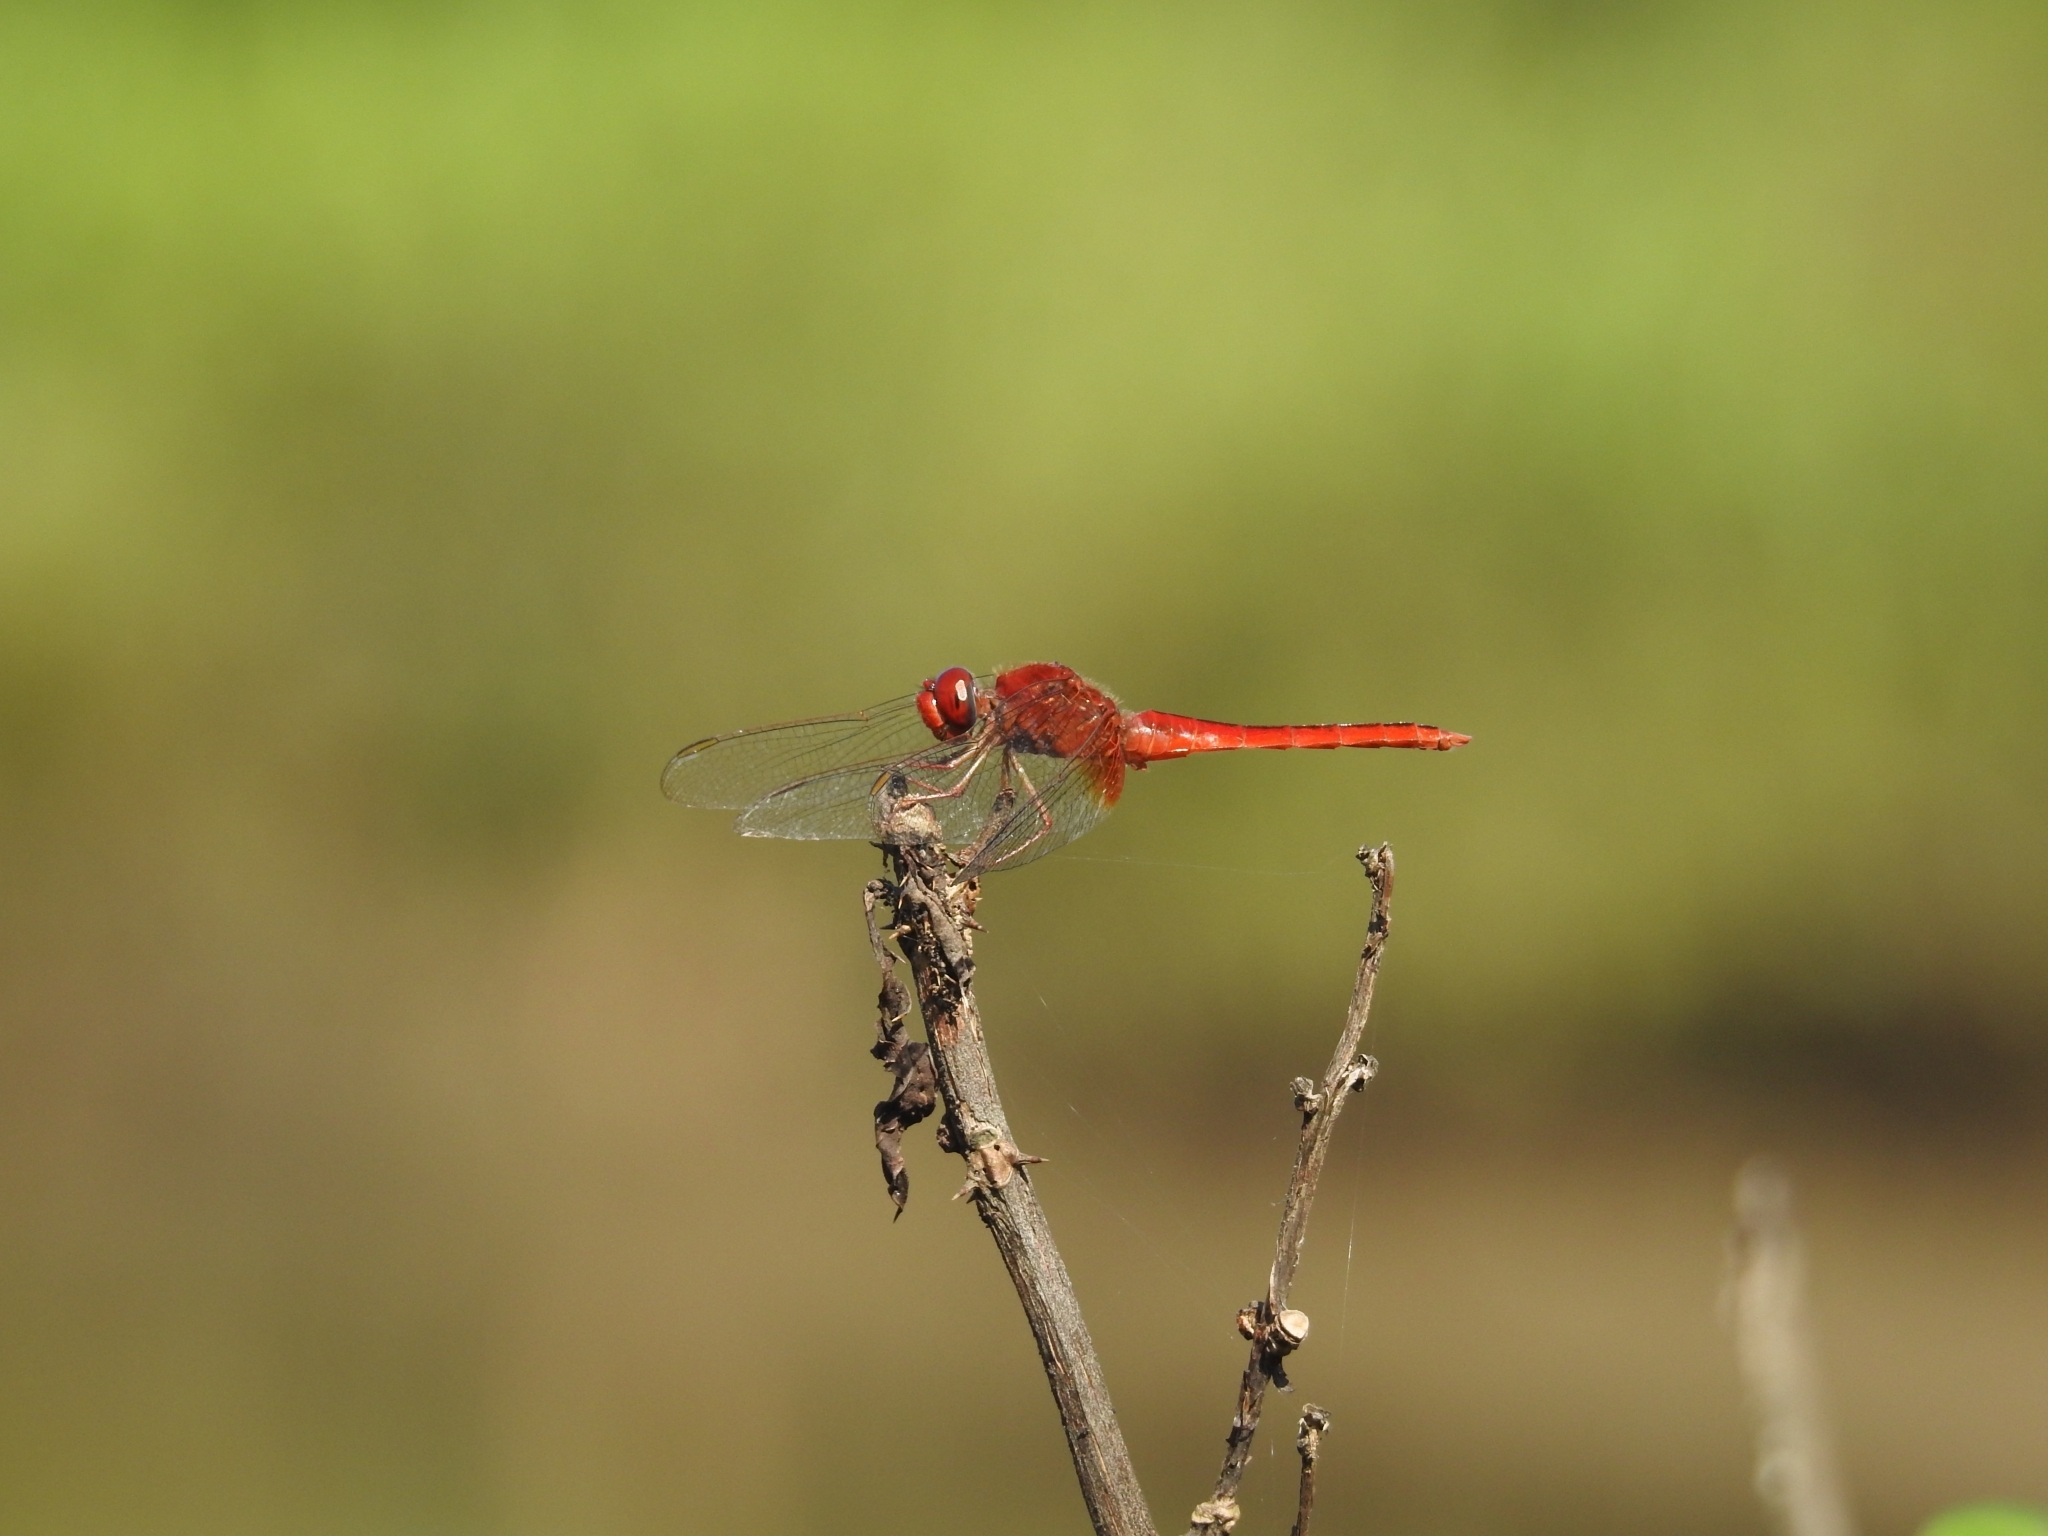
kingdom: Animalia
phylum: Arthropoda
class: Insecta
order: Odonata
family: Libellulidae
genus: Crocothemis
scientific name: Crocothemis servilia
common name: Scarlet skimmer
